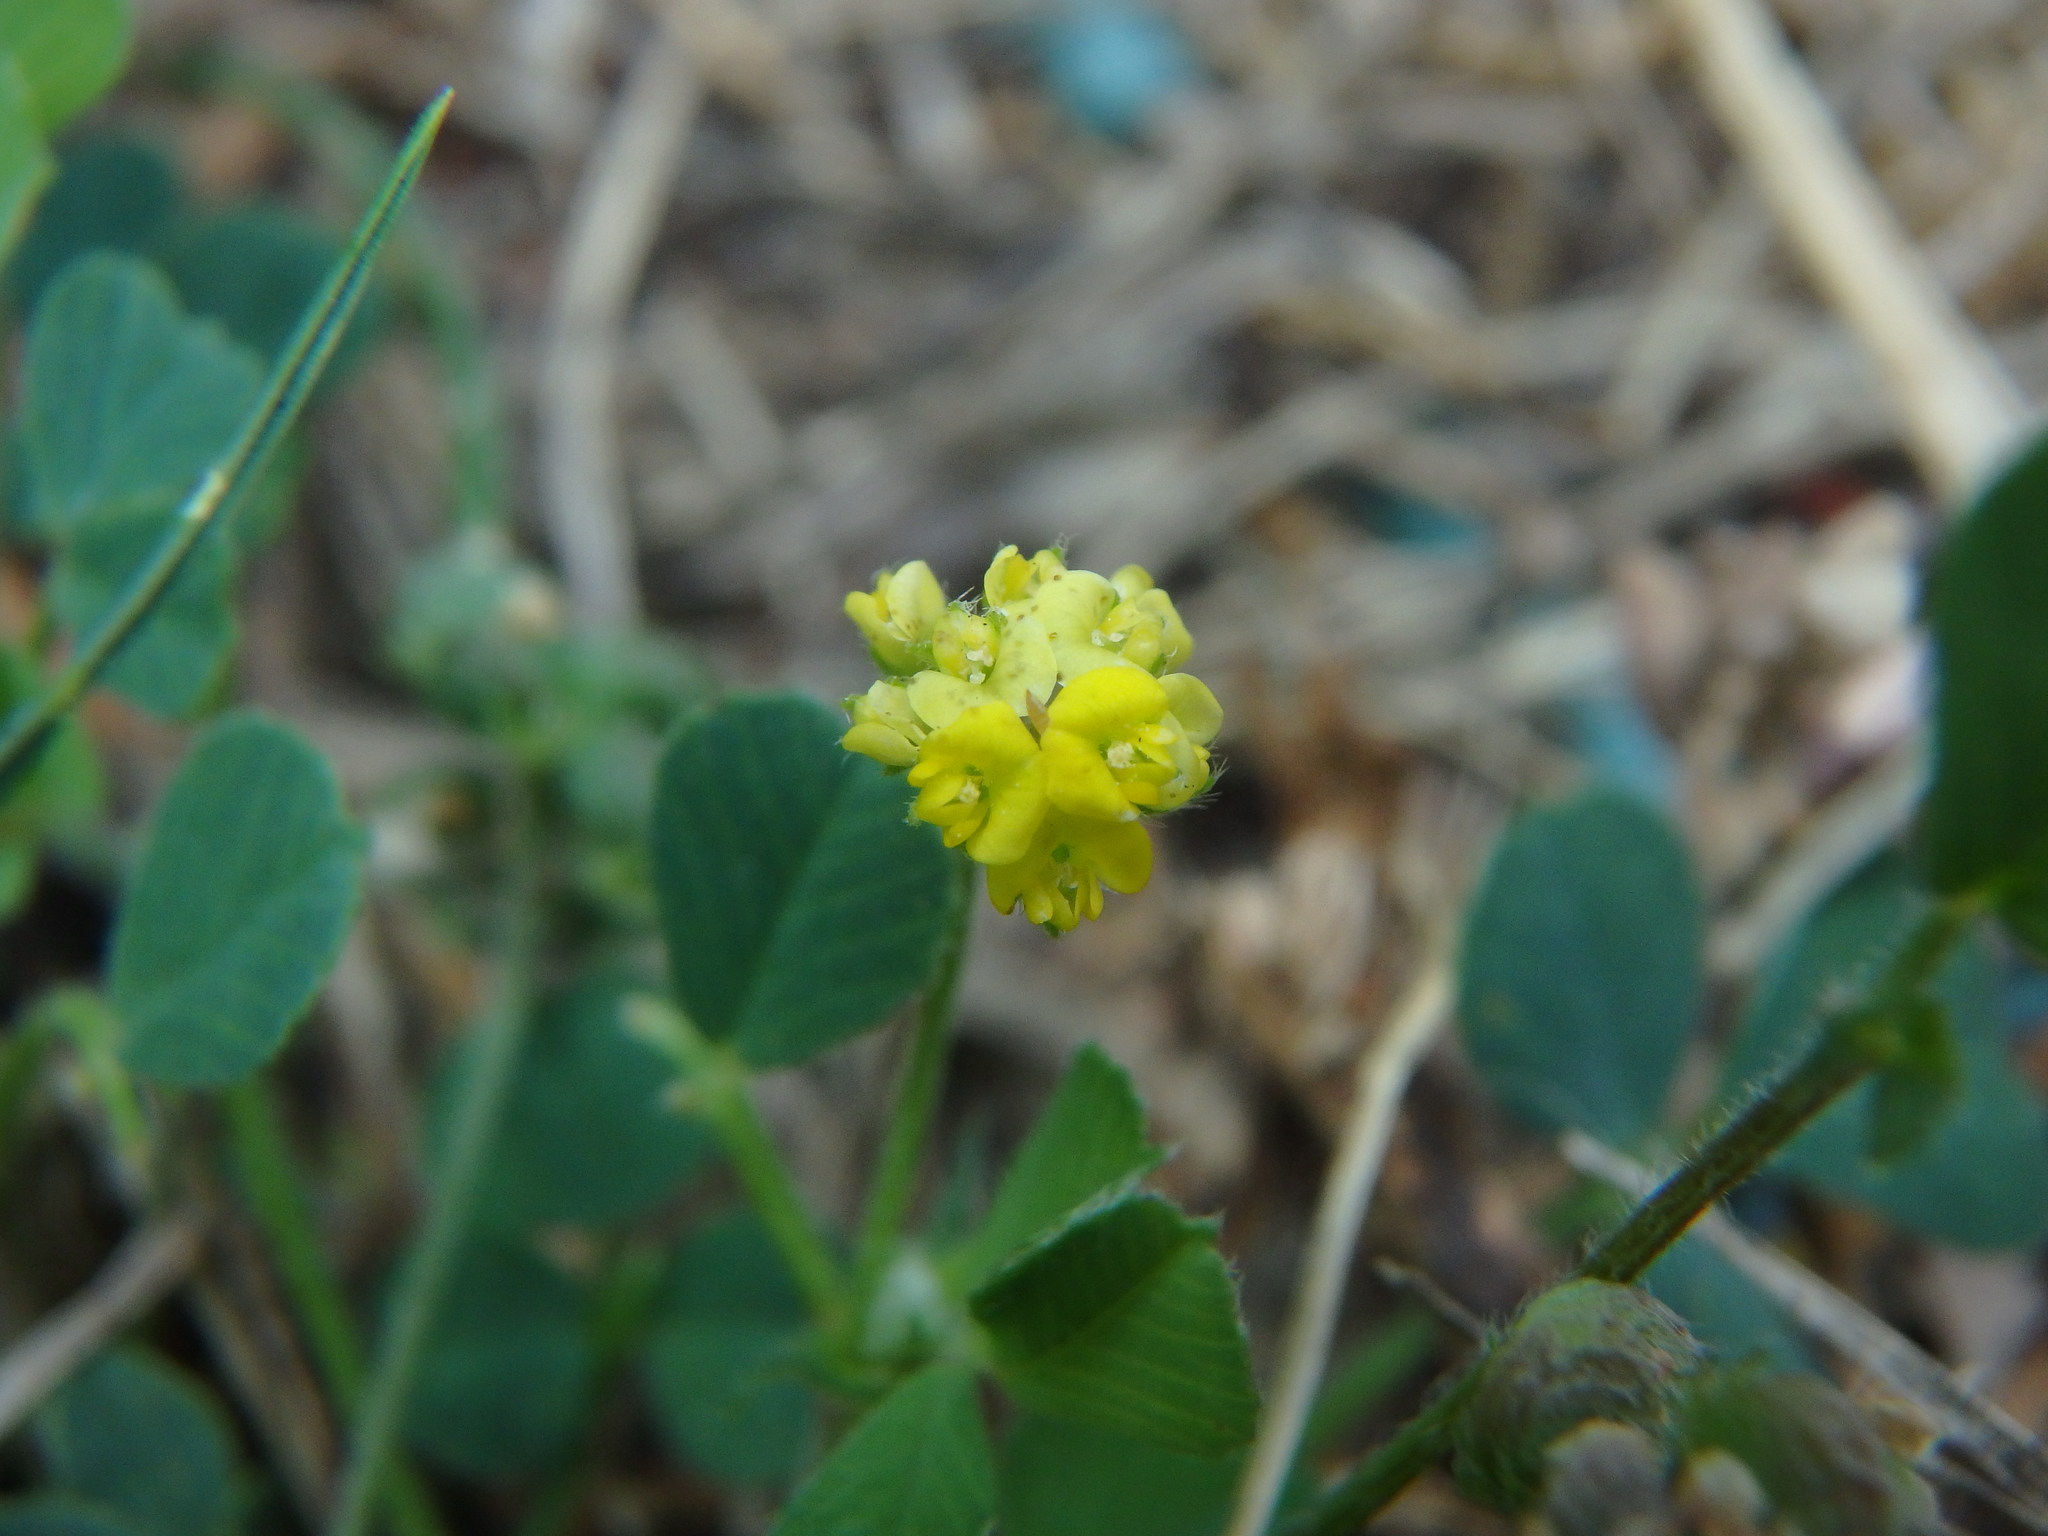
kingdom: Plantae
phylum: Tracheophyta
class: Magnoliopsida
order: Fabales
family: Fabaceae
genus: Medicago
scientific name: Medicago lupulina
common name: Black medick
